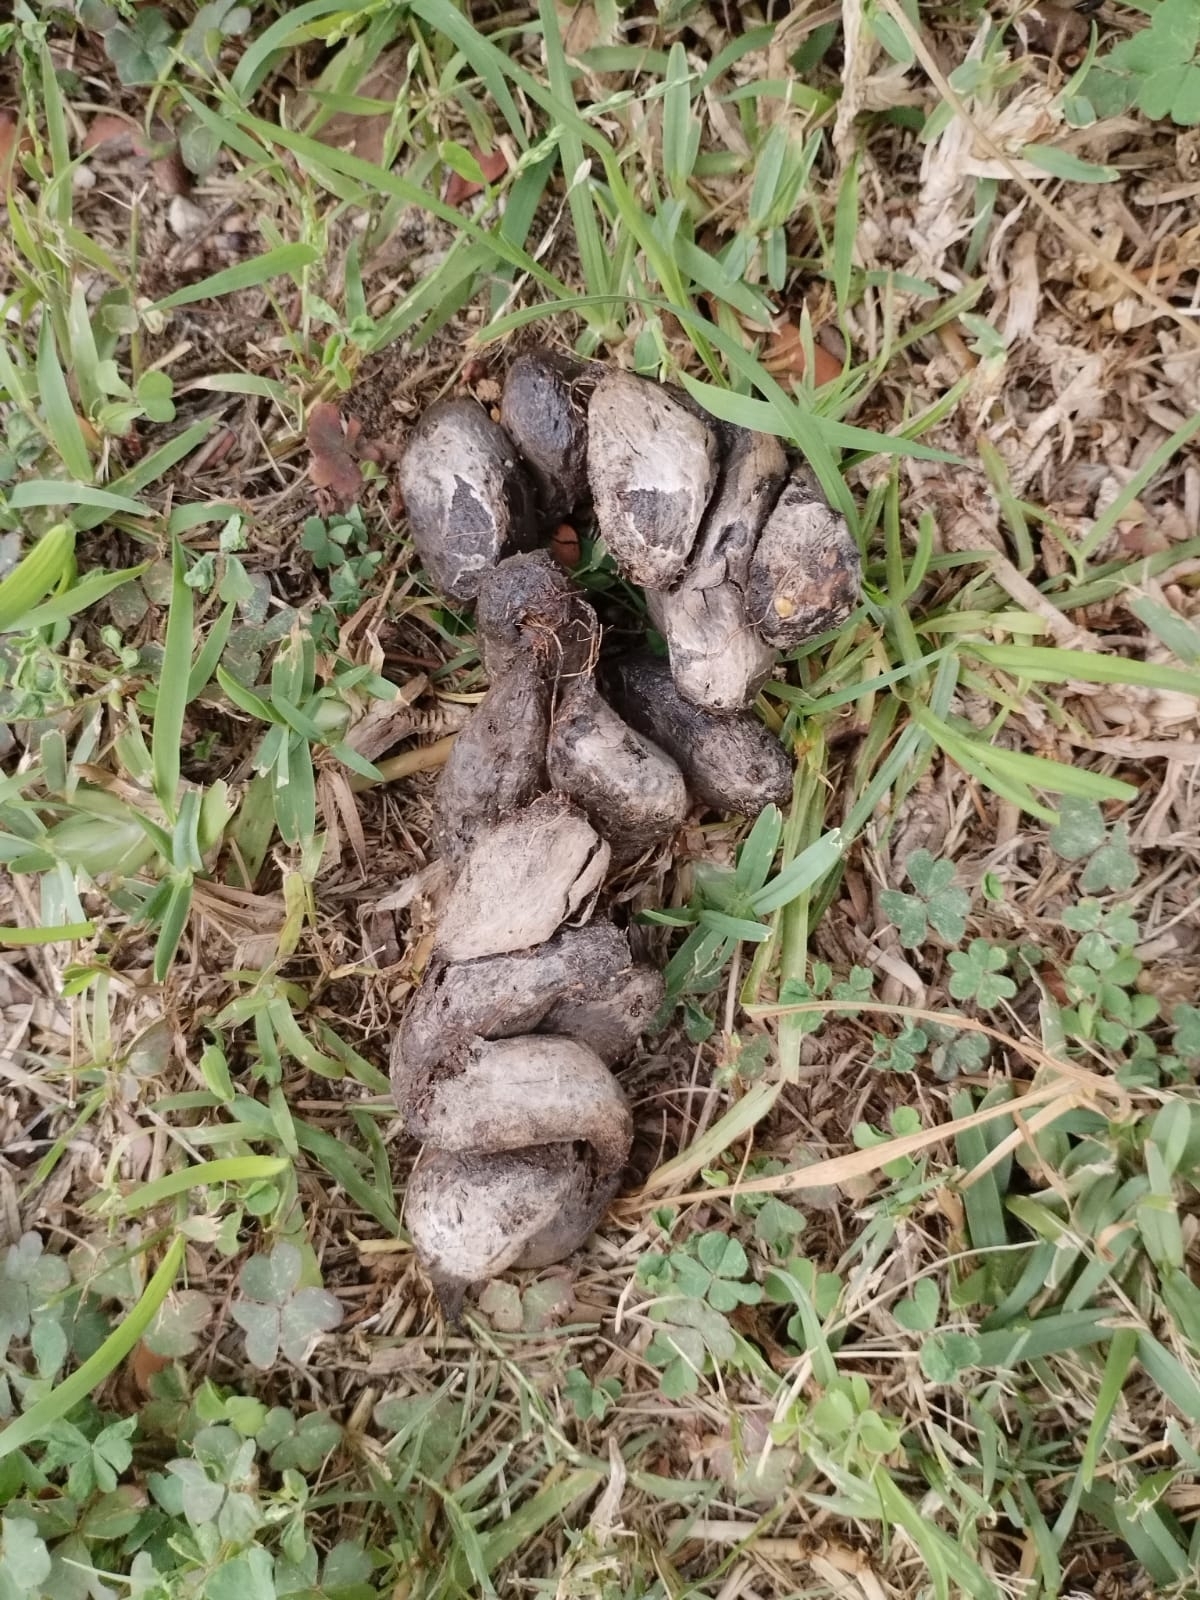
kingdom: Animalia
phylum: Chordata
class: Mammalia
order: Rodentia
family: Hystricidae
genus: Hystrix
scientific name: Hystrix africaeaustralis
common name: Cape porcupine
